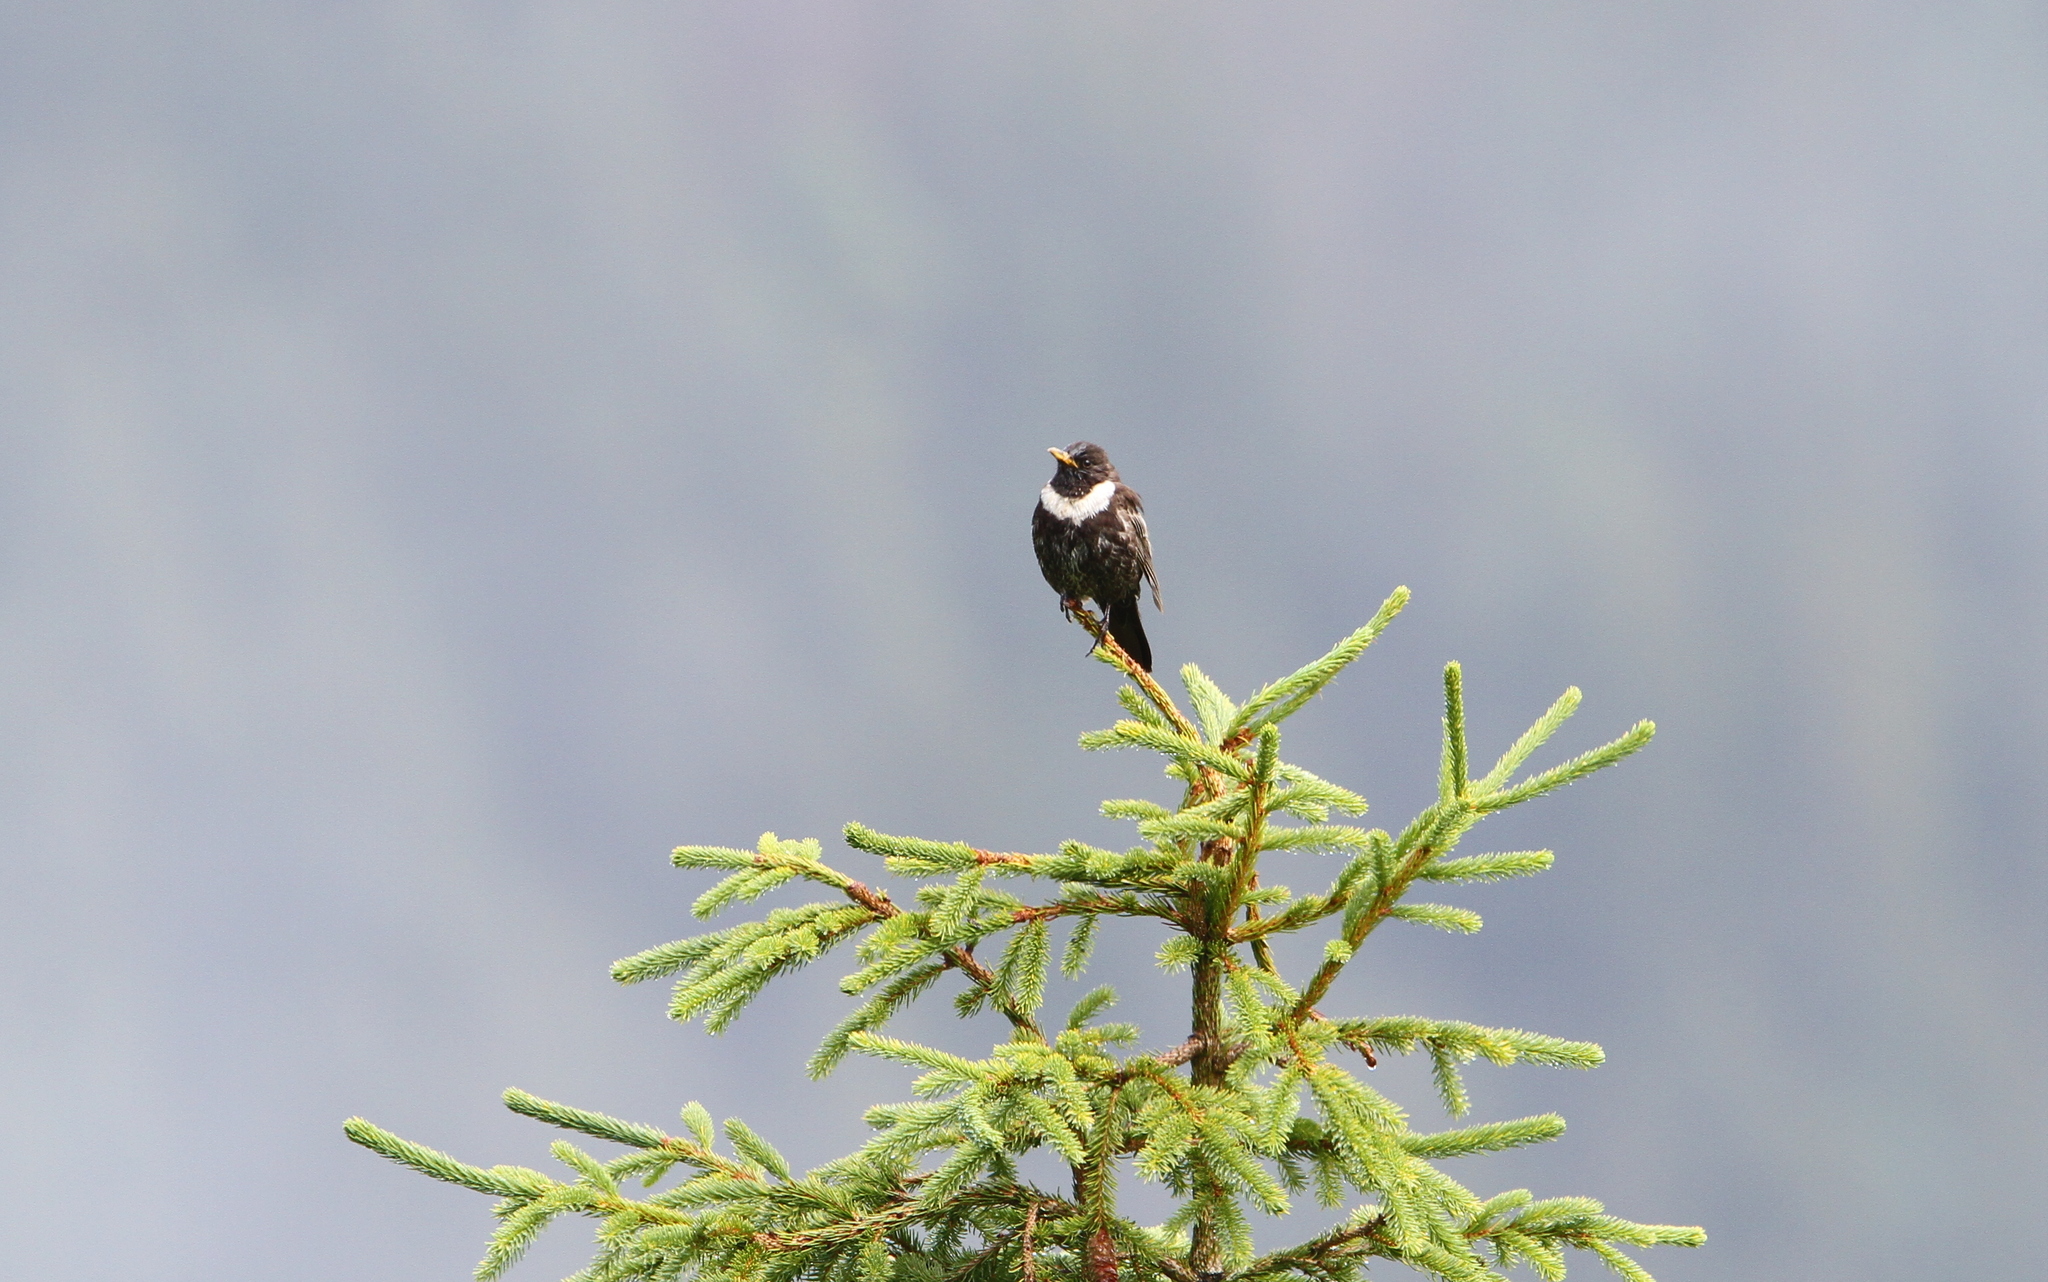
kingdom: Animalia
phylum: Chordata
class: Aves
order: Passeriformes
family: Turdidae
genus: Turdus
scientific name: Turdus torquatus
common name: Ring ouzel
